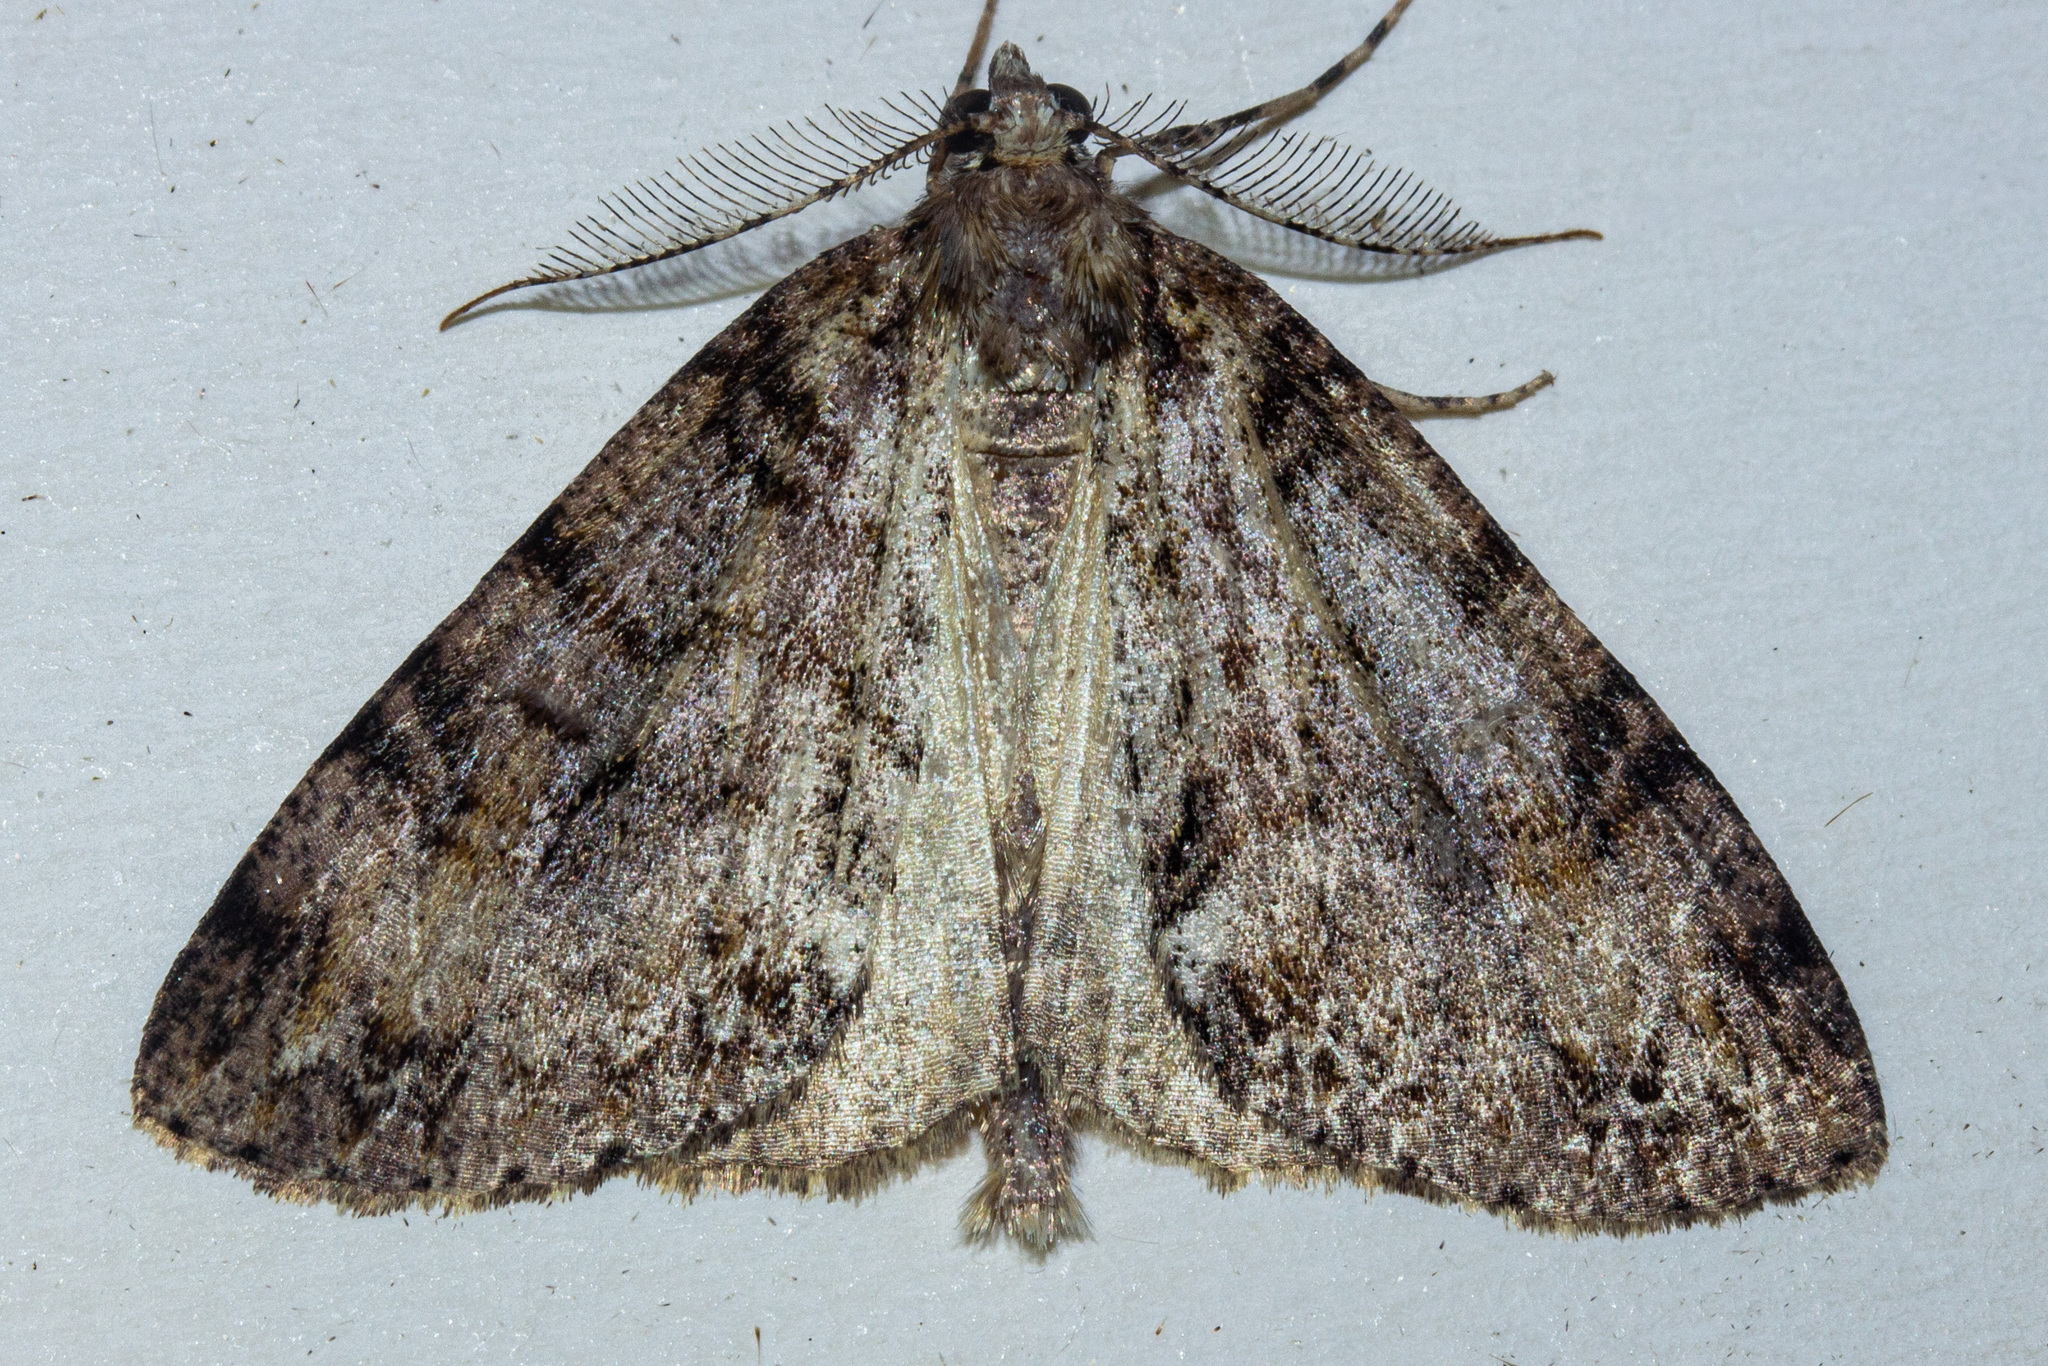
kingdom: Animalia
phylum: Arthropoda
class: Insecta
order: Lepidoptera
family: Geometridae
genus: Pseudocoremia
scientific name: Pseudocoremia suavis
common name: Common forest looper
